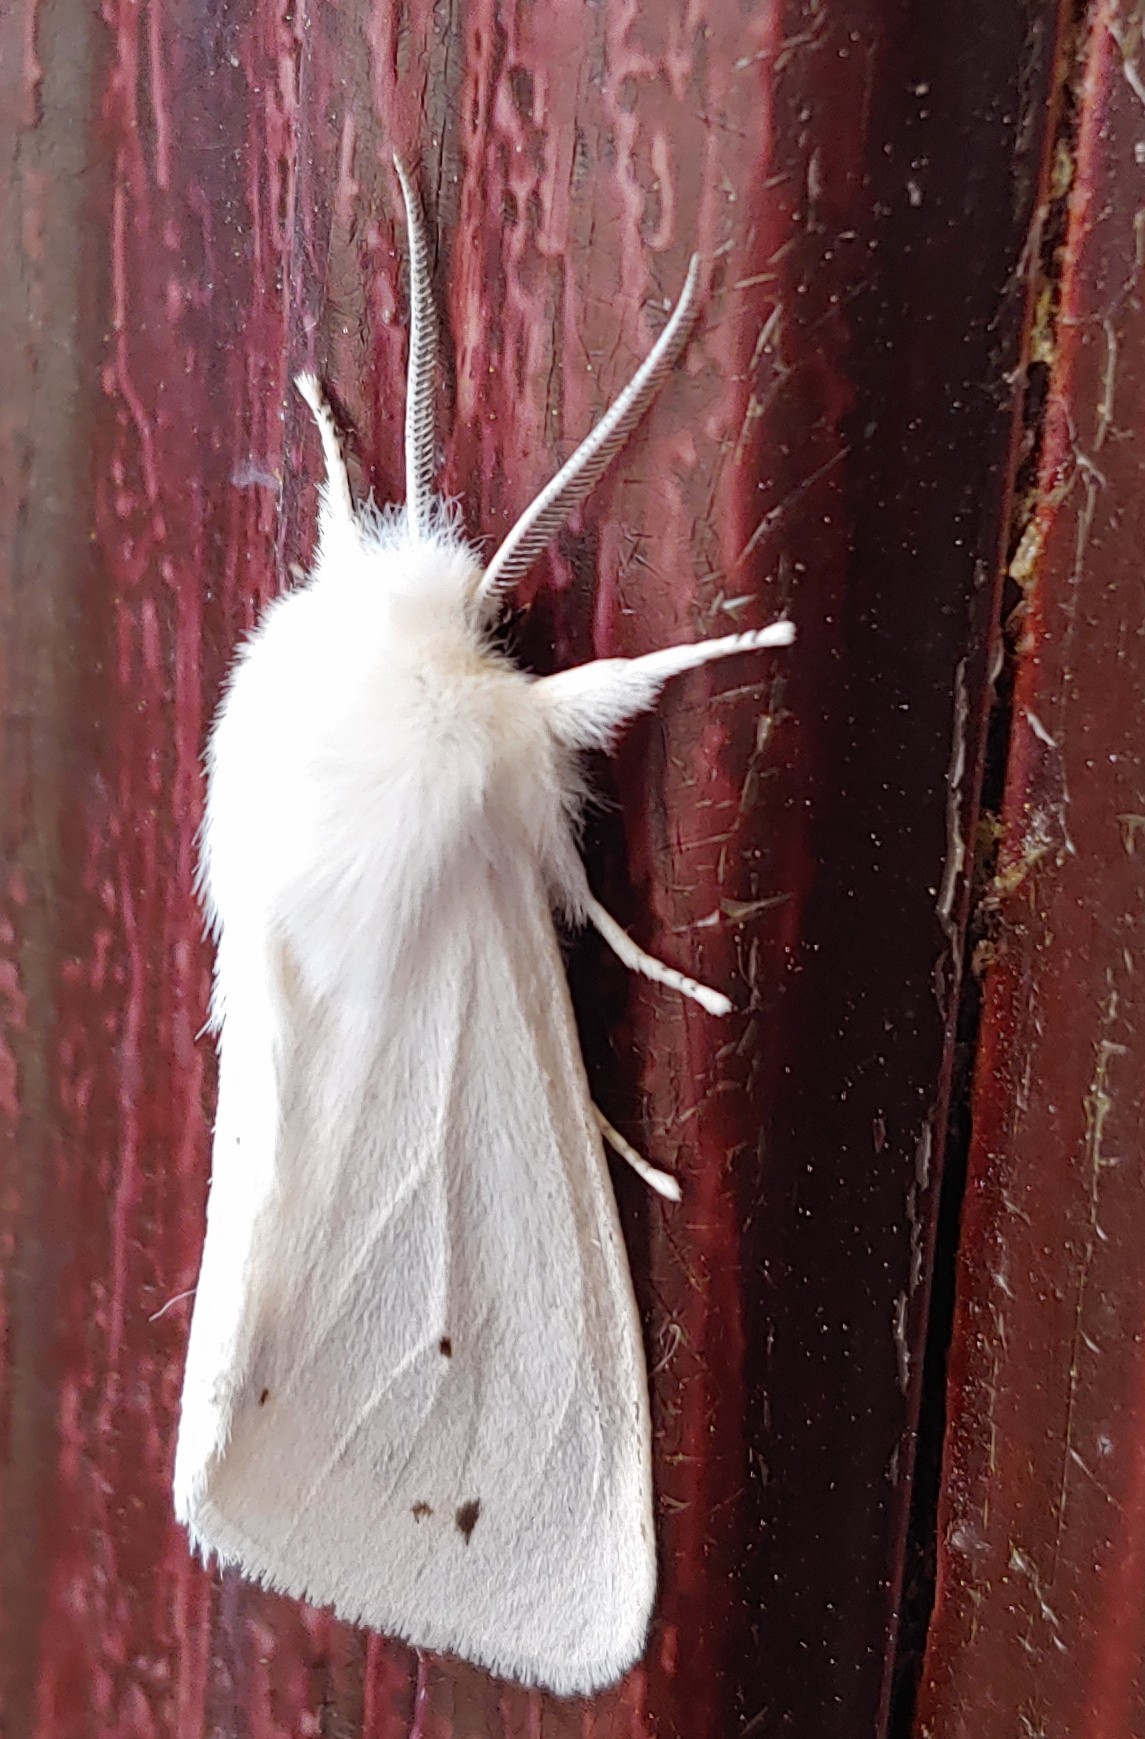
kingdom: Animalia
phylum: Arthropoda
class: Insecta
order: Lepidoptera
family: Erebidae
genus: Spilosoma
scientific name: Spilosoma virginica
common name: Virginia tiger moth
